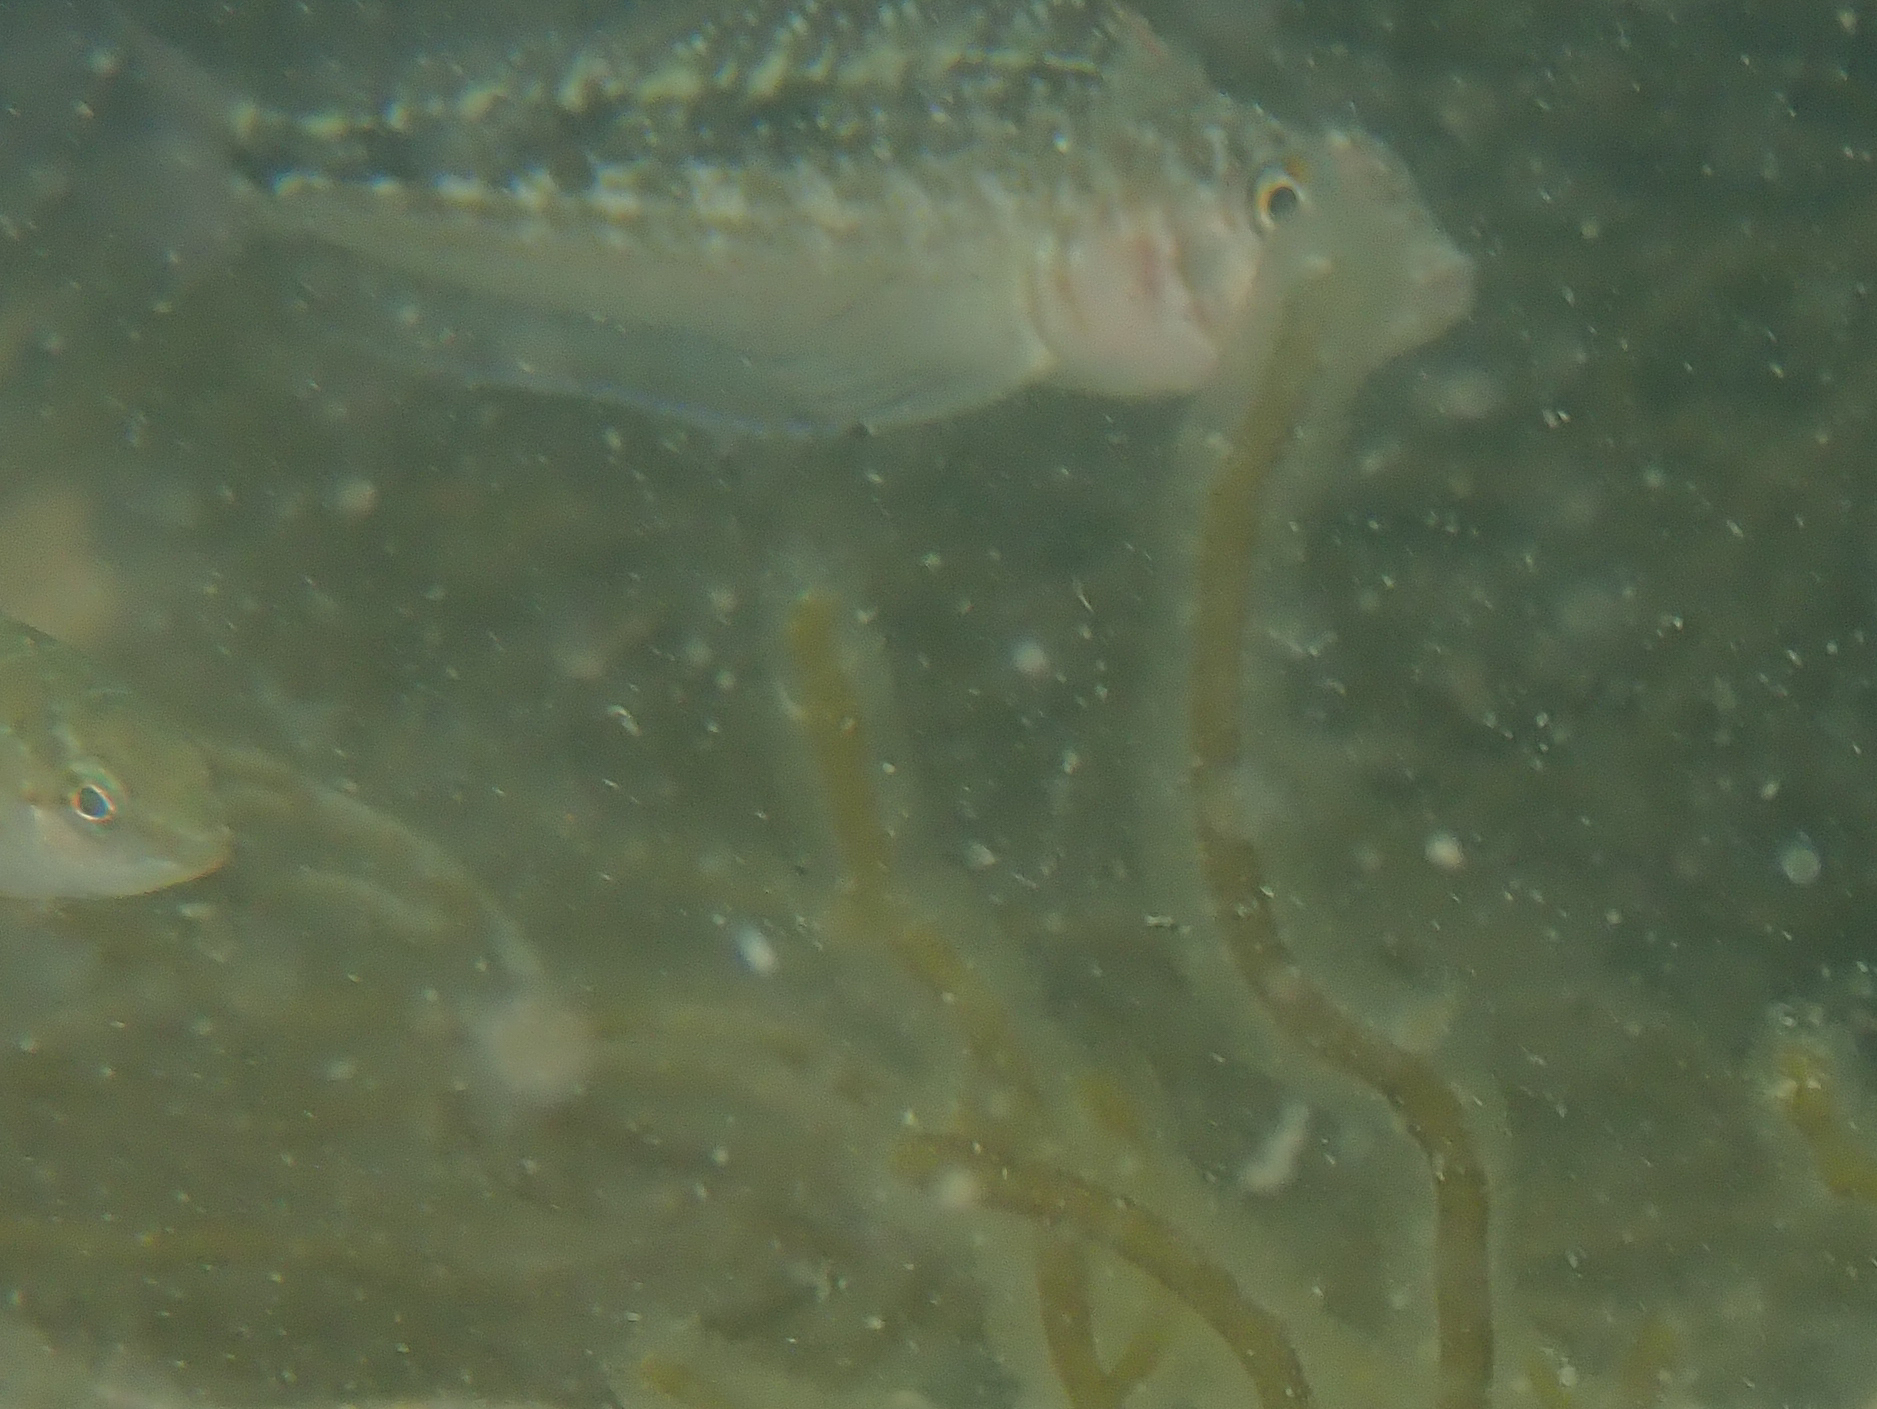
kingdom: Animalia
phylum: Chordata
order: Perciformes
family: Tripterygiidae
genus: Forsterygion
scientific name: Forsterygion varium
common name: Variable triplefin
